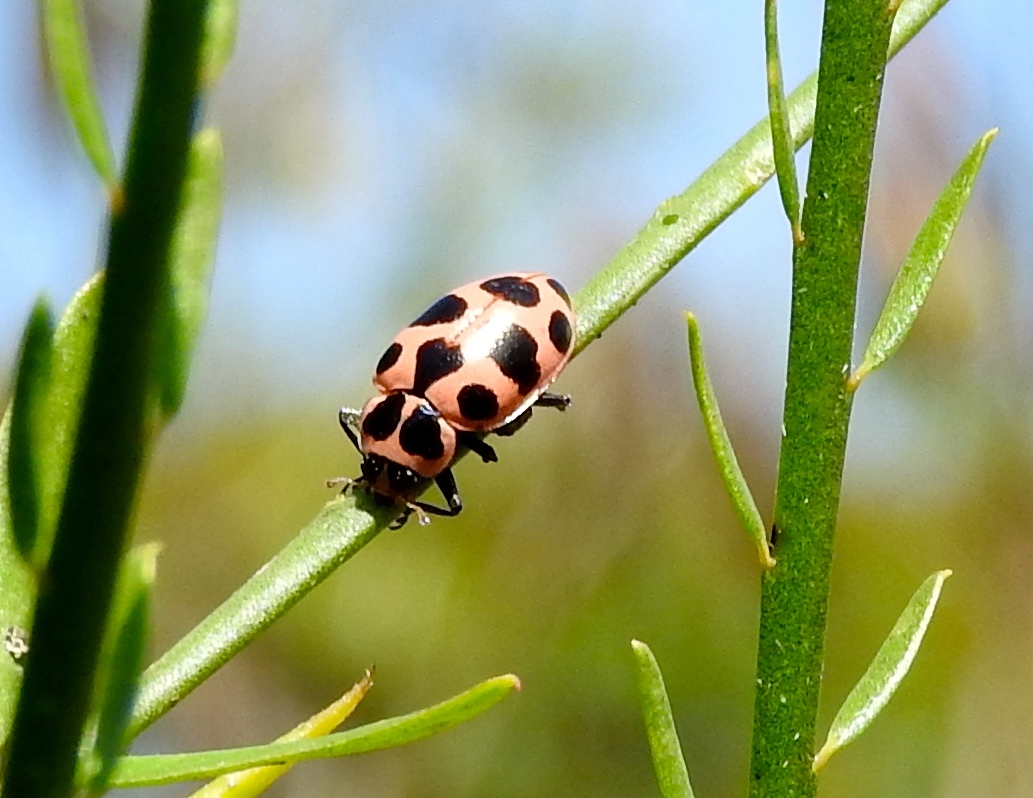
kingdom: Animalia
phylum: Arthropoda
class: Insecta
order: Coleoptera
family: Coccinellidae
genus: Coleomegilla
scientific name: Coleomegilla maculata
